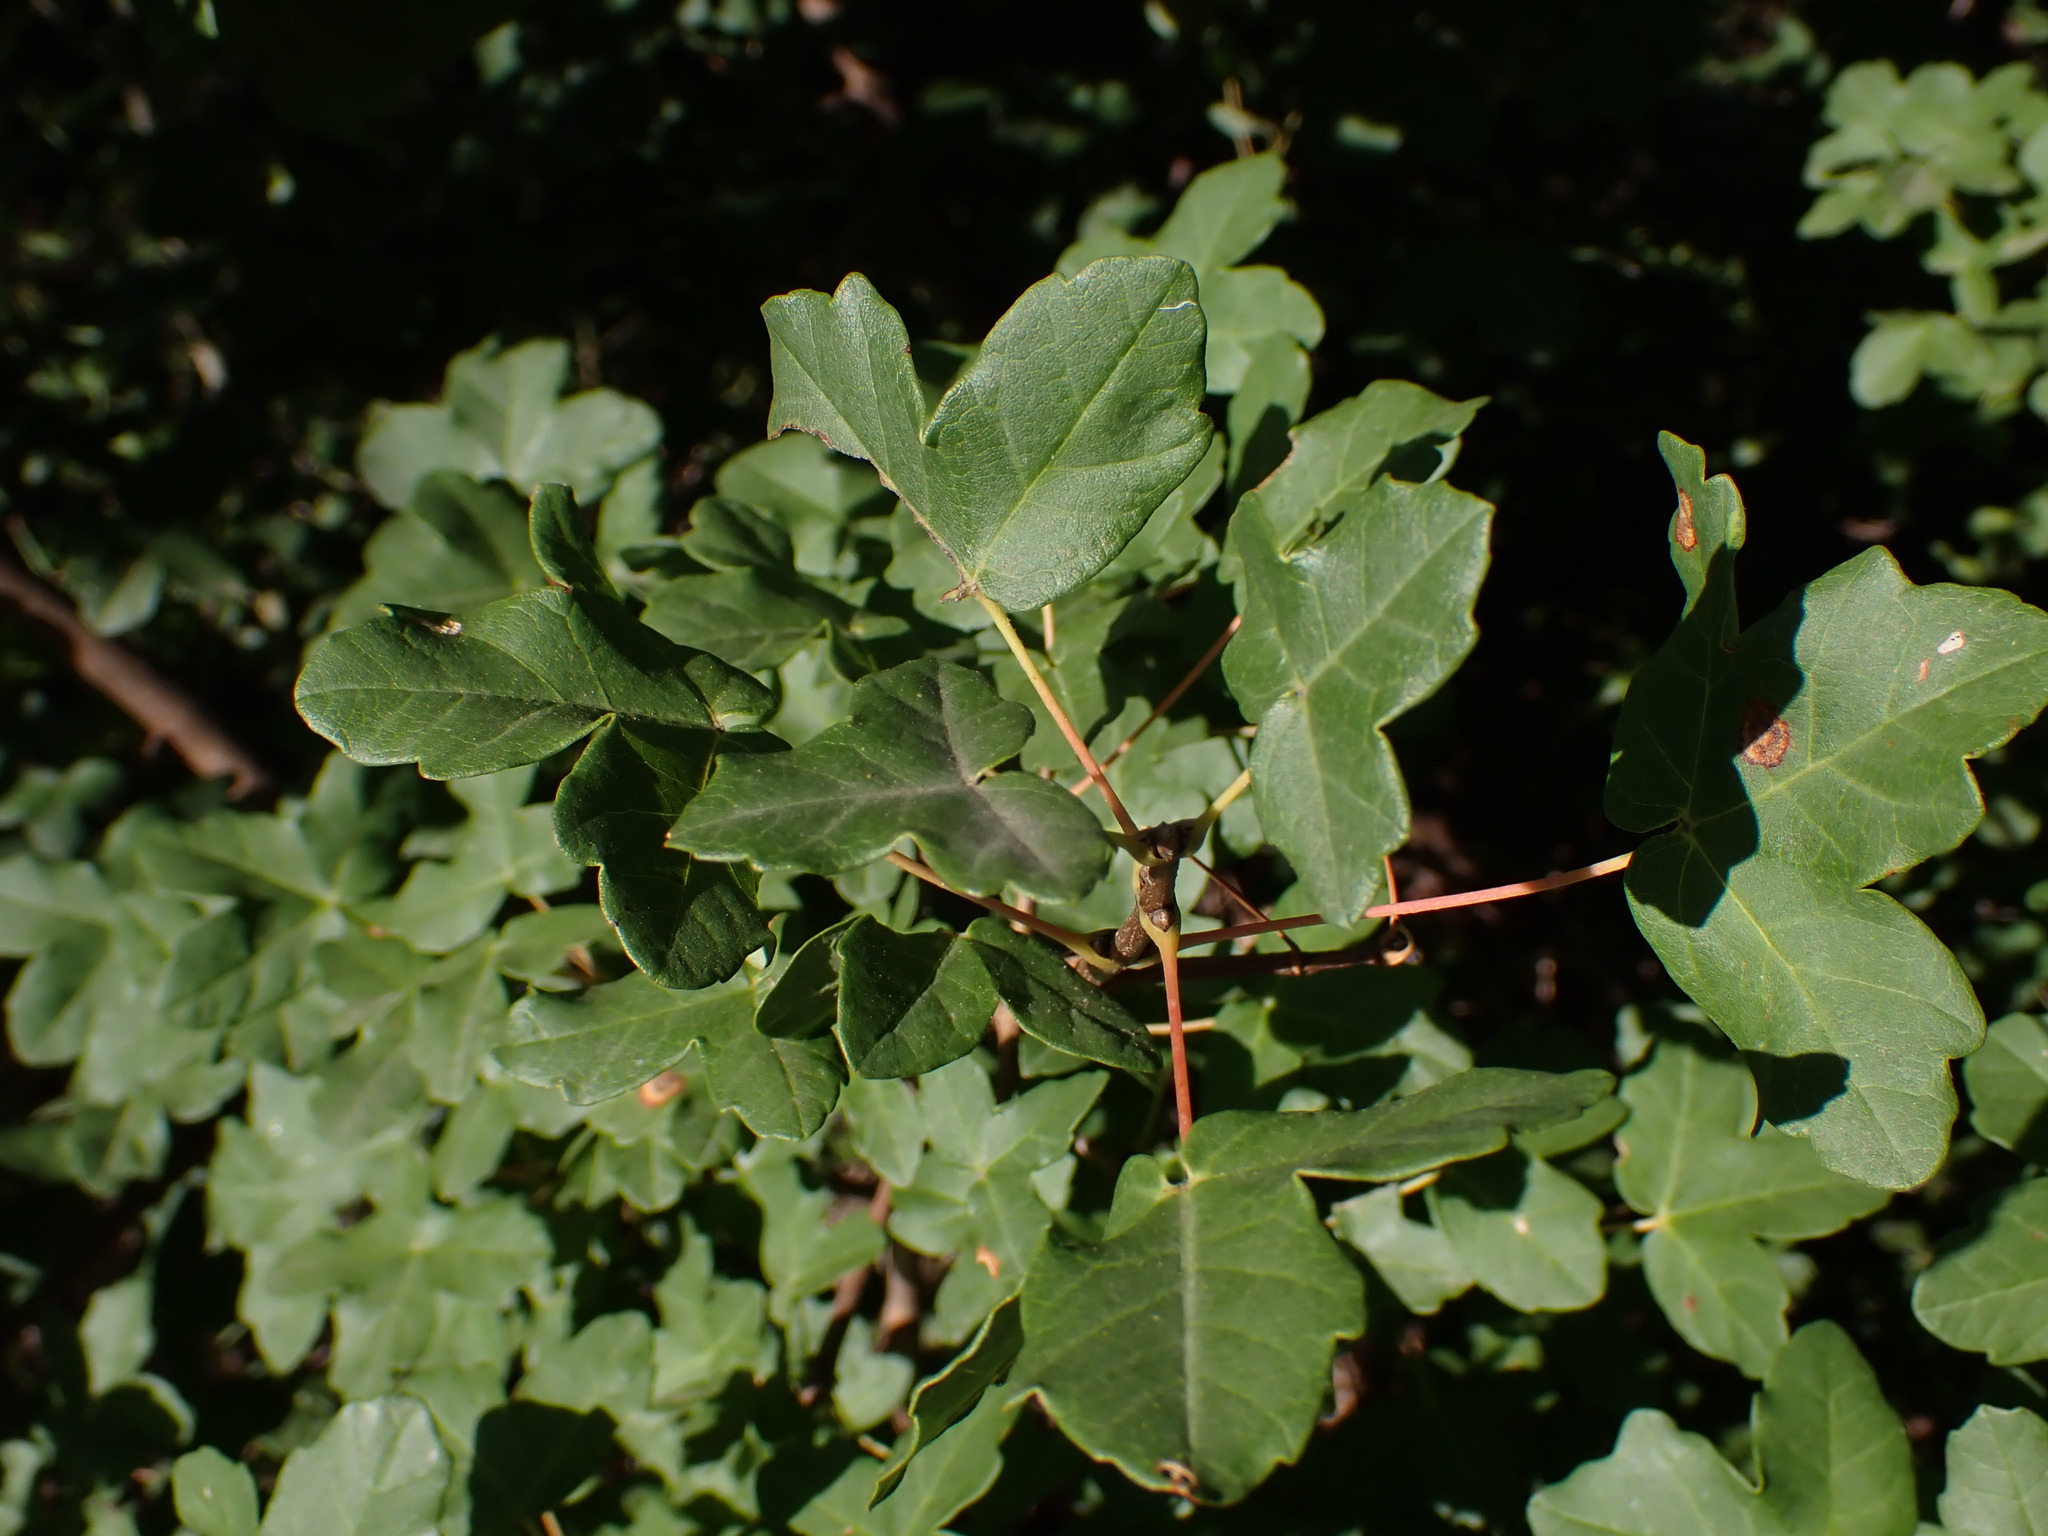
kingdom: Plantae
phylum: Tracheophyta
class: Magnoliopsida
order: Sapindales
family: Sapindaceae
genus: Acer
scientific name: Acer monspessulanum
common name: Montpellier maple
